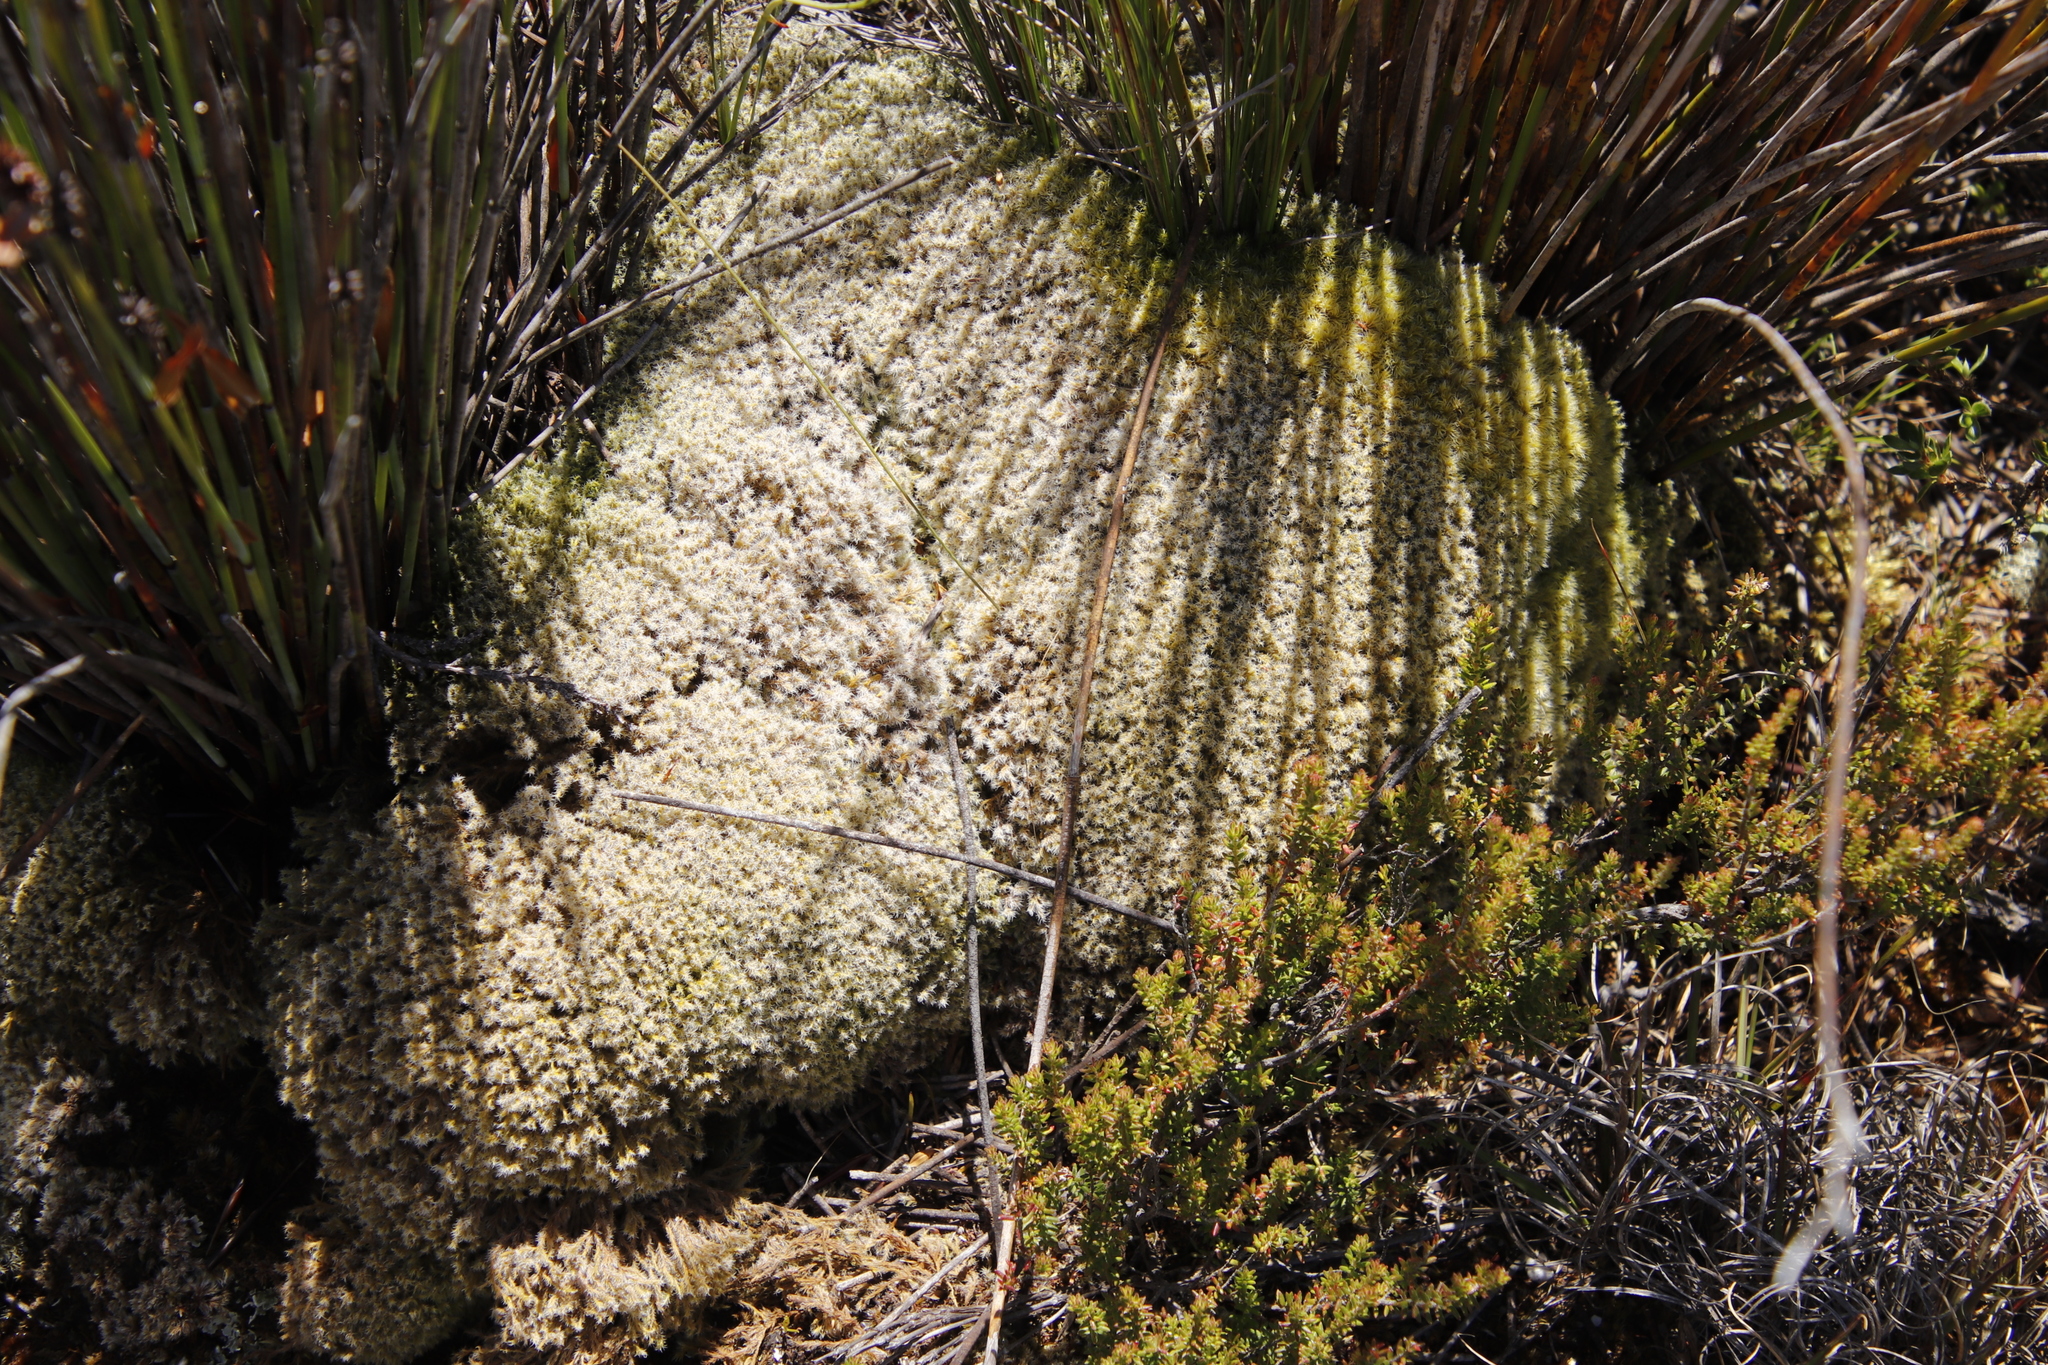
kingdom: Plantae
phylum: Bryophyta
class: Bryopsida
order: Grimmiales
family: Grimmiaceae
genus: Racomitrium
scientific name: Racomitrium lanuginosum
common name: Hoary rock moss
